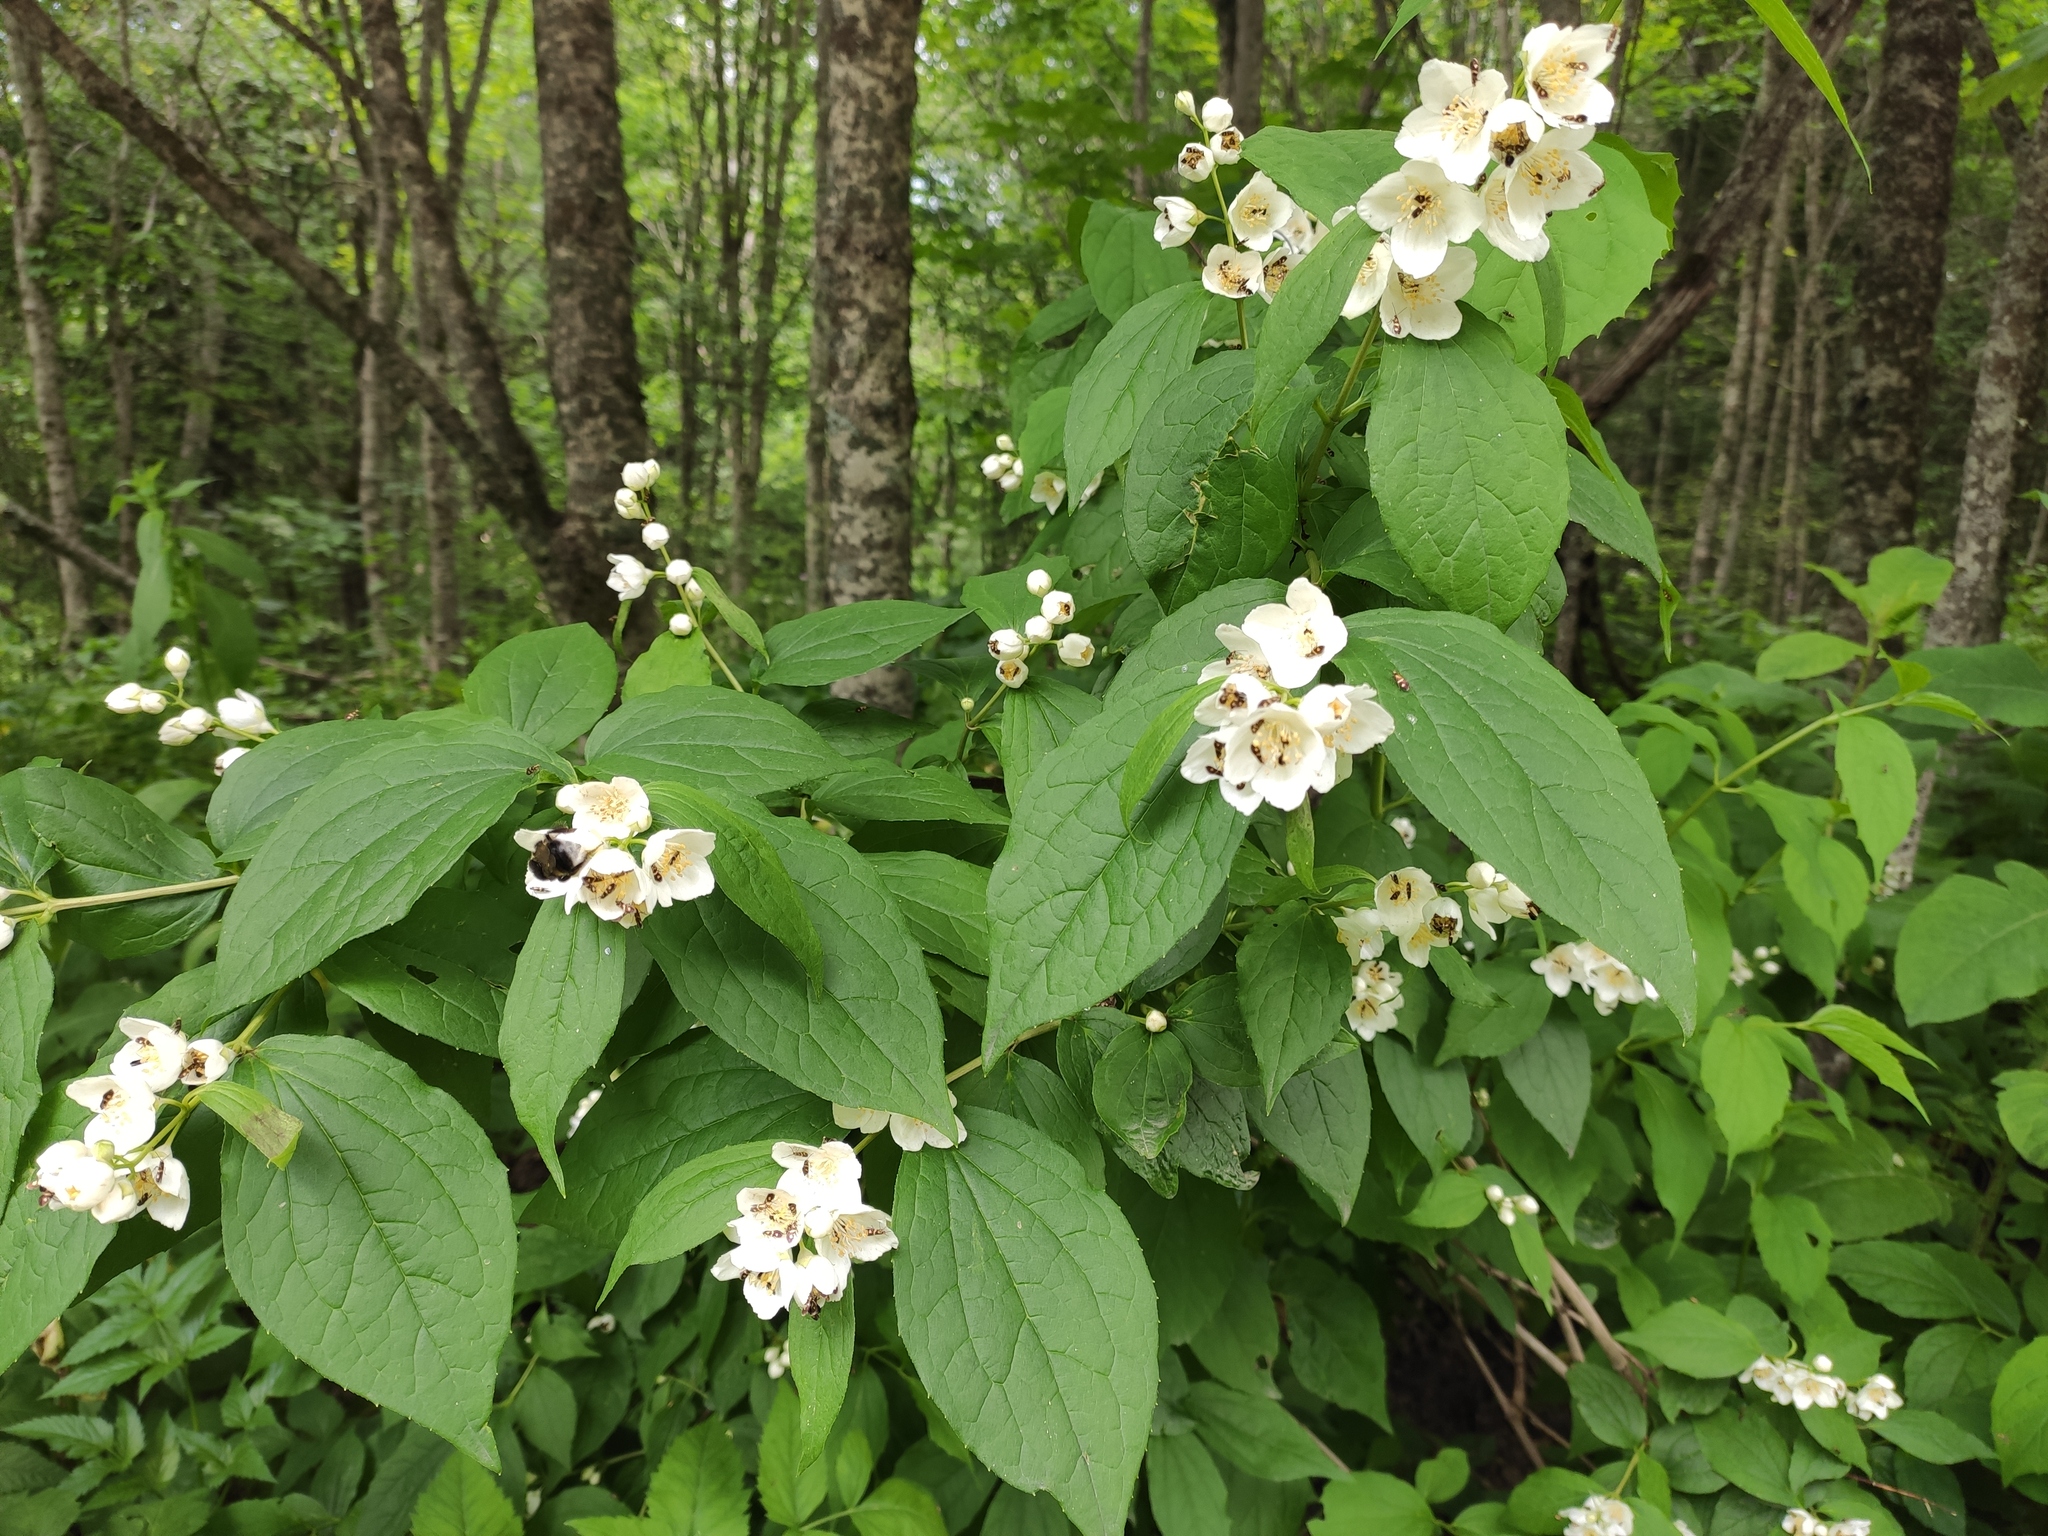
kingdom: Plantae
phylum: Tracheophyta
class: Magnoliopsida
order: Cornales
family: Hydrangeaceae
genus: Philadelphus
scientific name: Philadelphus coronarius
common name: Mock orange
